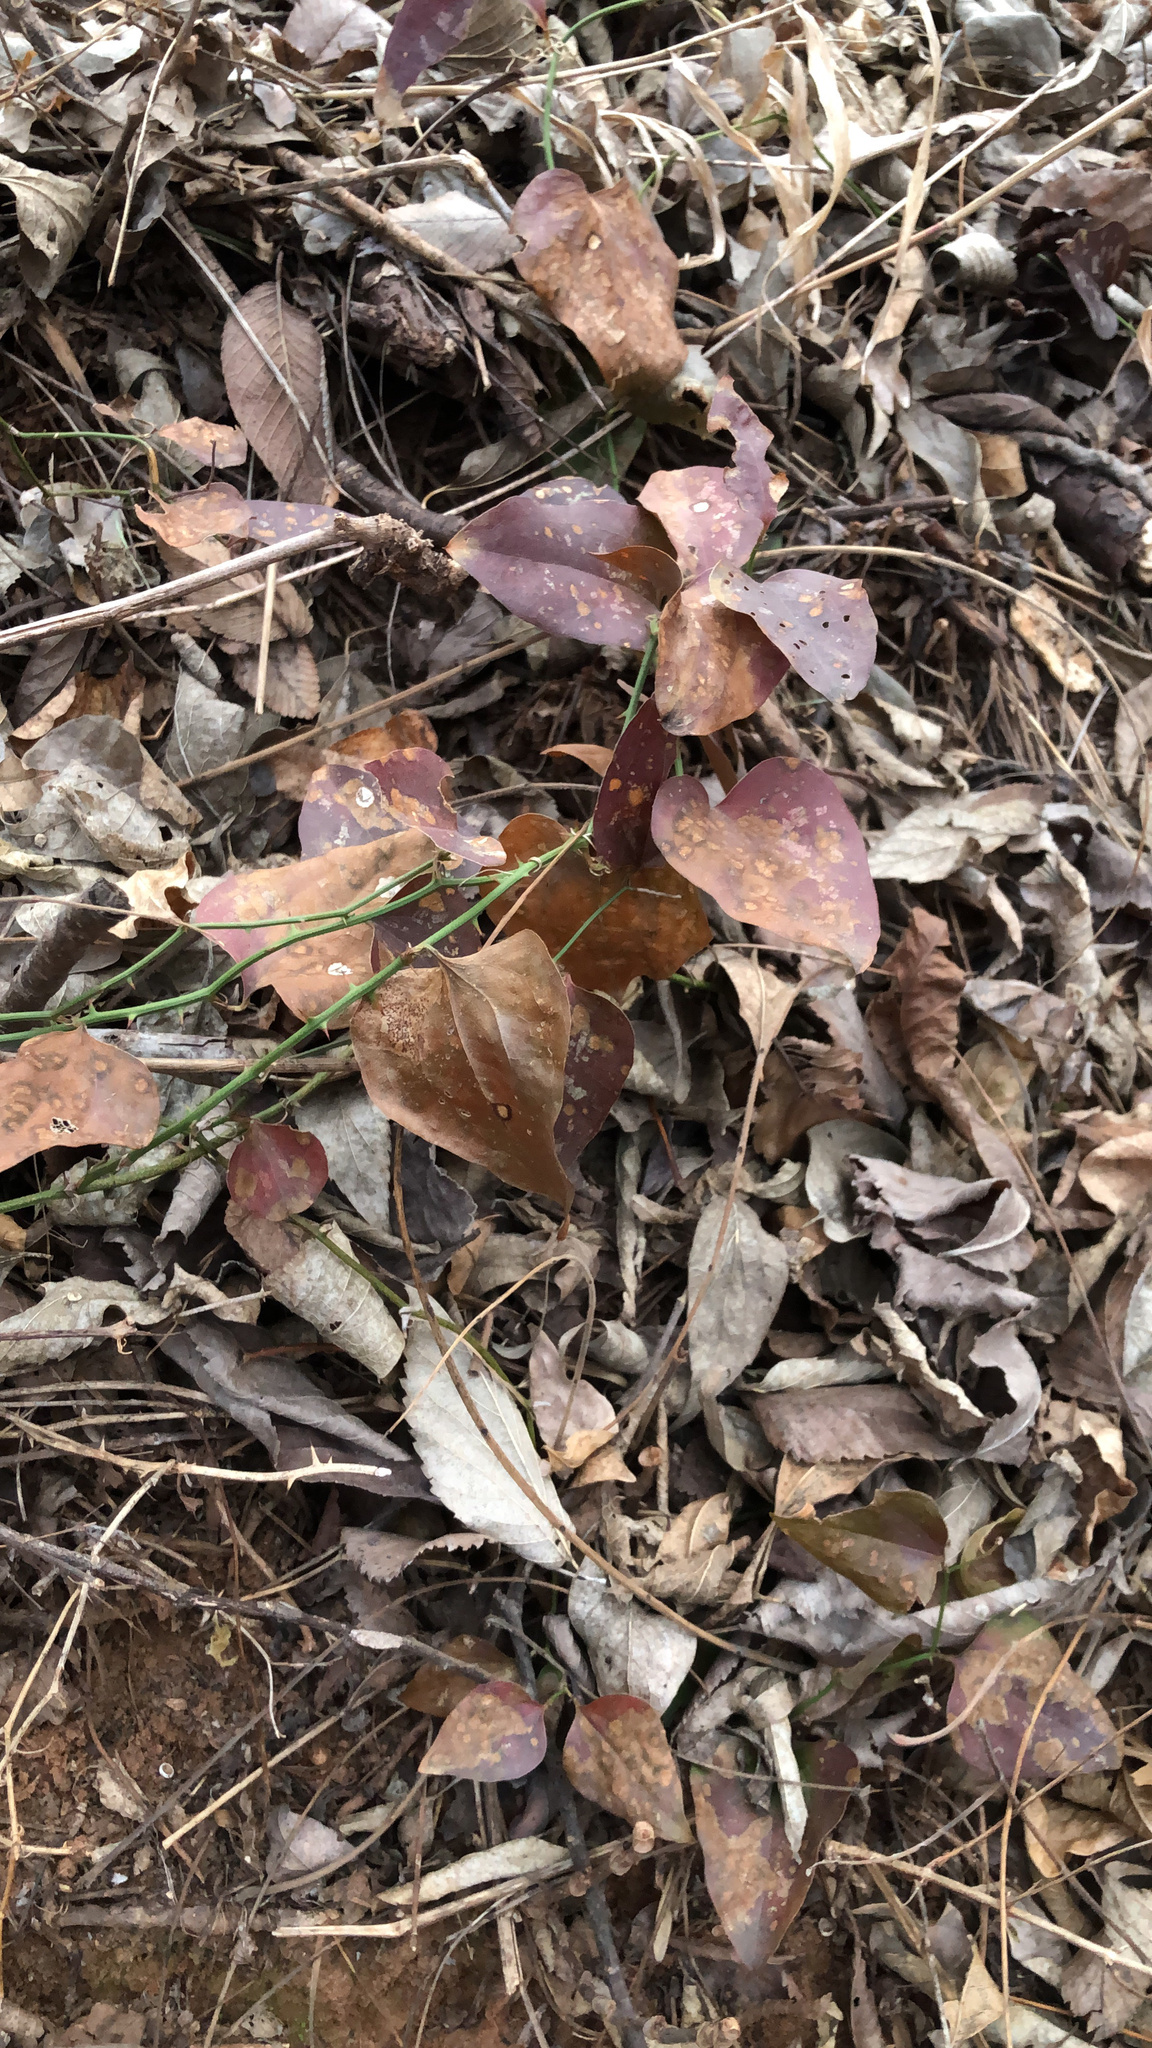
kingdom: Plantae
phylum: Tracheophyta
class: Liliopsida
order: Liliales
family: Smilacaceae
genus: Smilax
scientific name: Smilax bona-nox
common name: Catbrier
